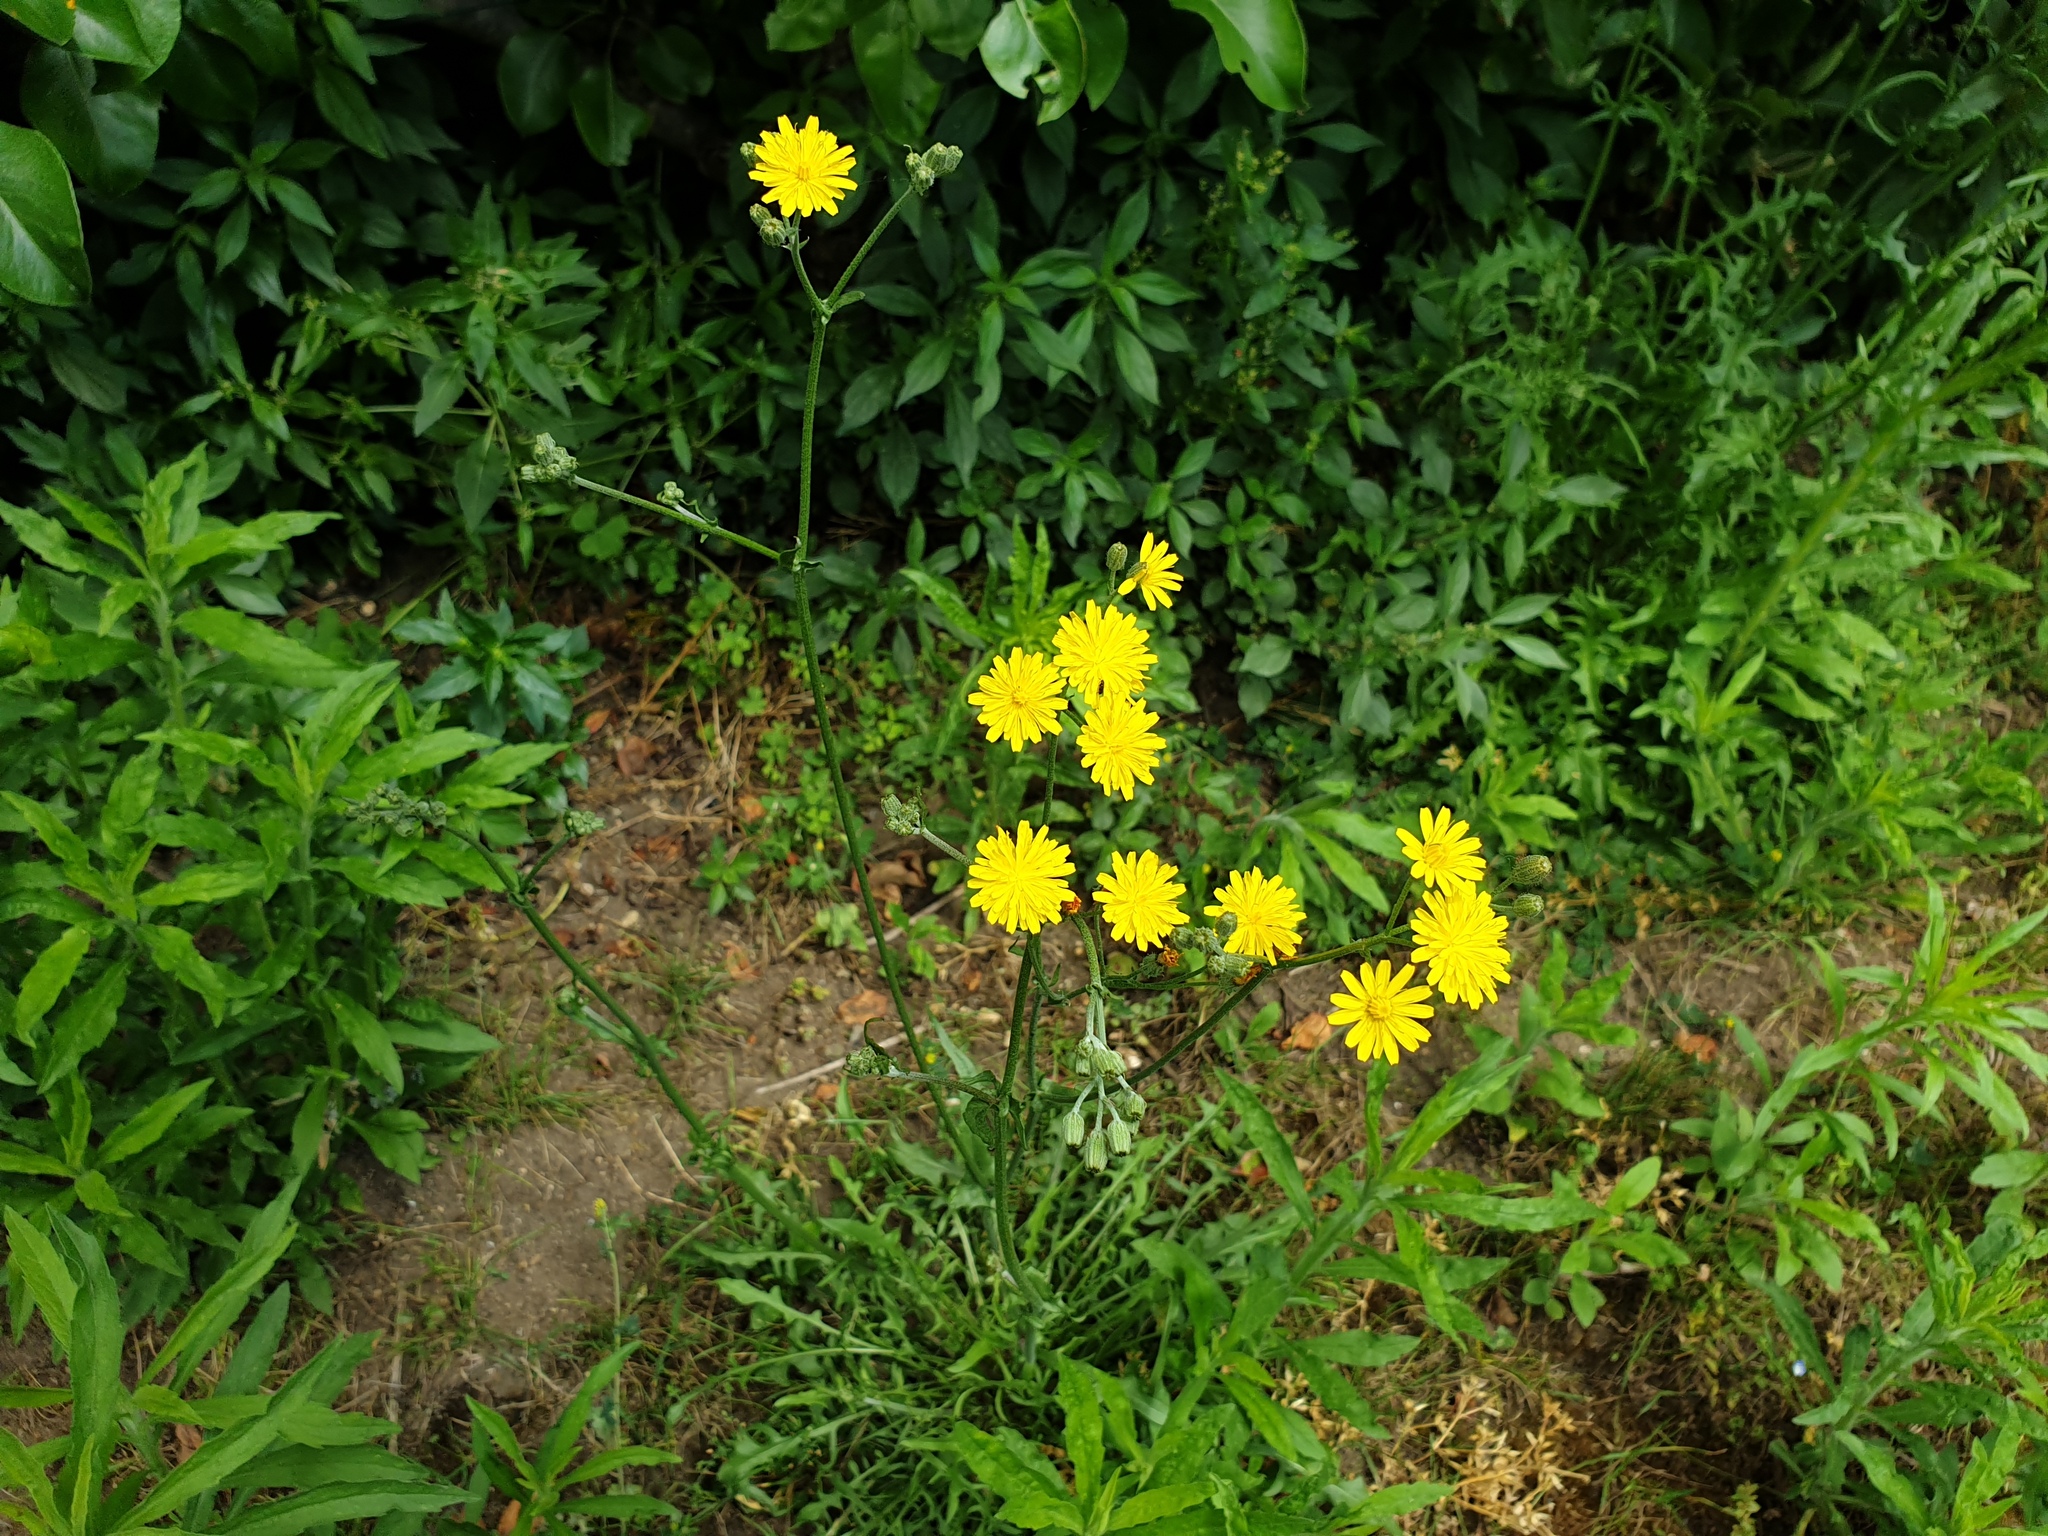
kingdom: Plantae
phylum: Tracheophyta
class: Magnoliopsida
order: Asterales
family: Asteraceae
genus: Crepis
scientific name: Crepis capillaris
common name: Smooth hawksbeard
